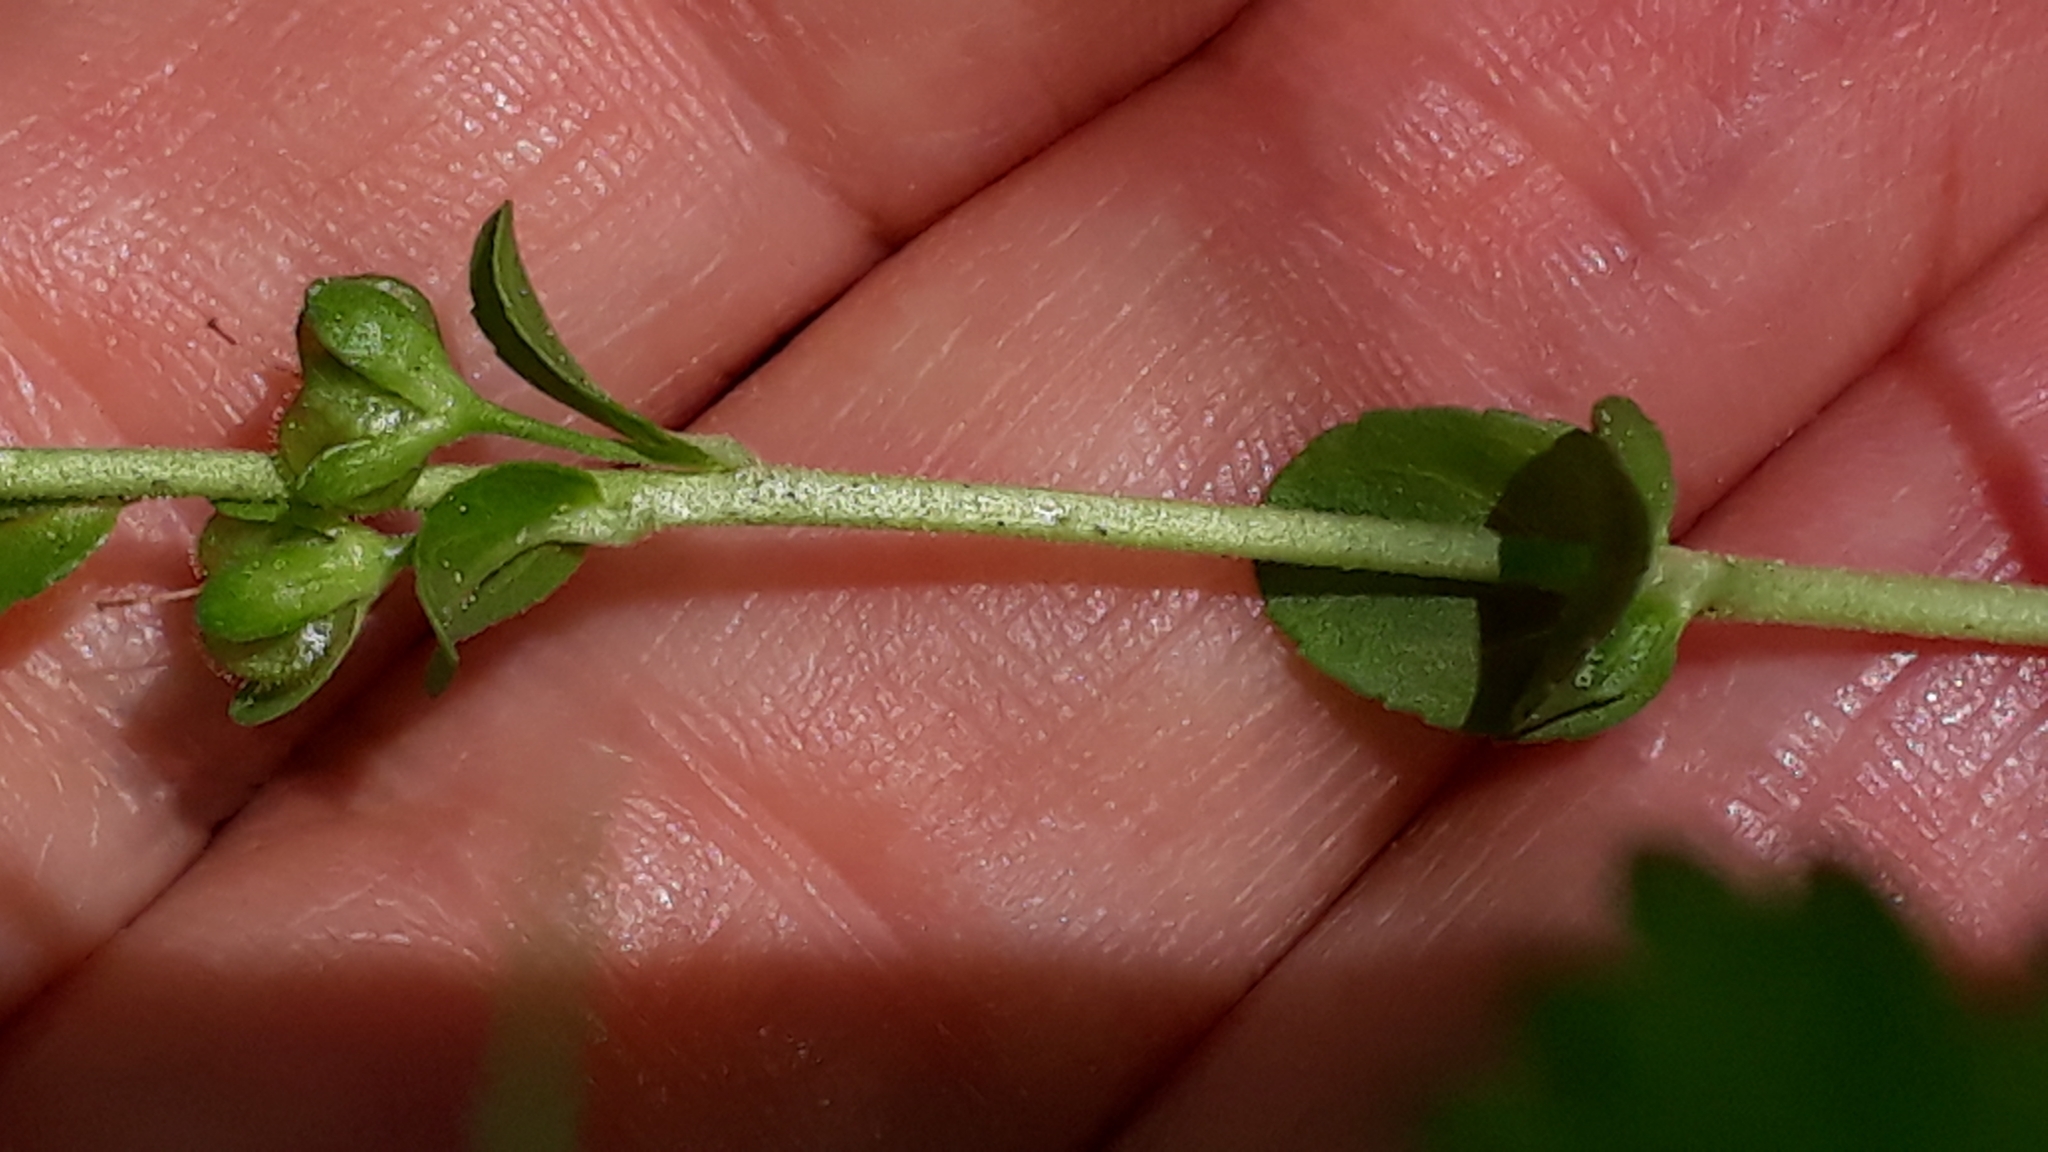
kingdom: Plantae
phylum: Tracheophyta
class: Magnoliopsida
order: Lamiales
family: Plantaginaceae
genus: Veronica
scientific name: Veronica serpyllifolia
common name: Thyme-leaved speedwell
